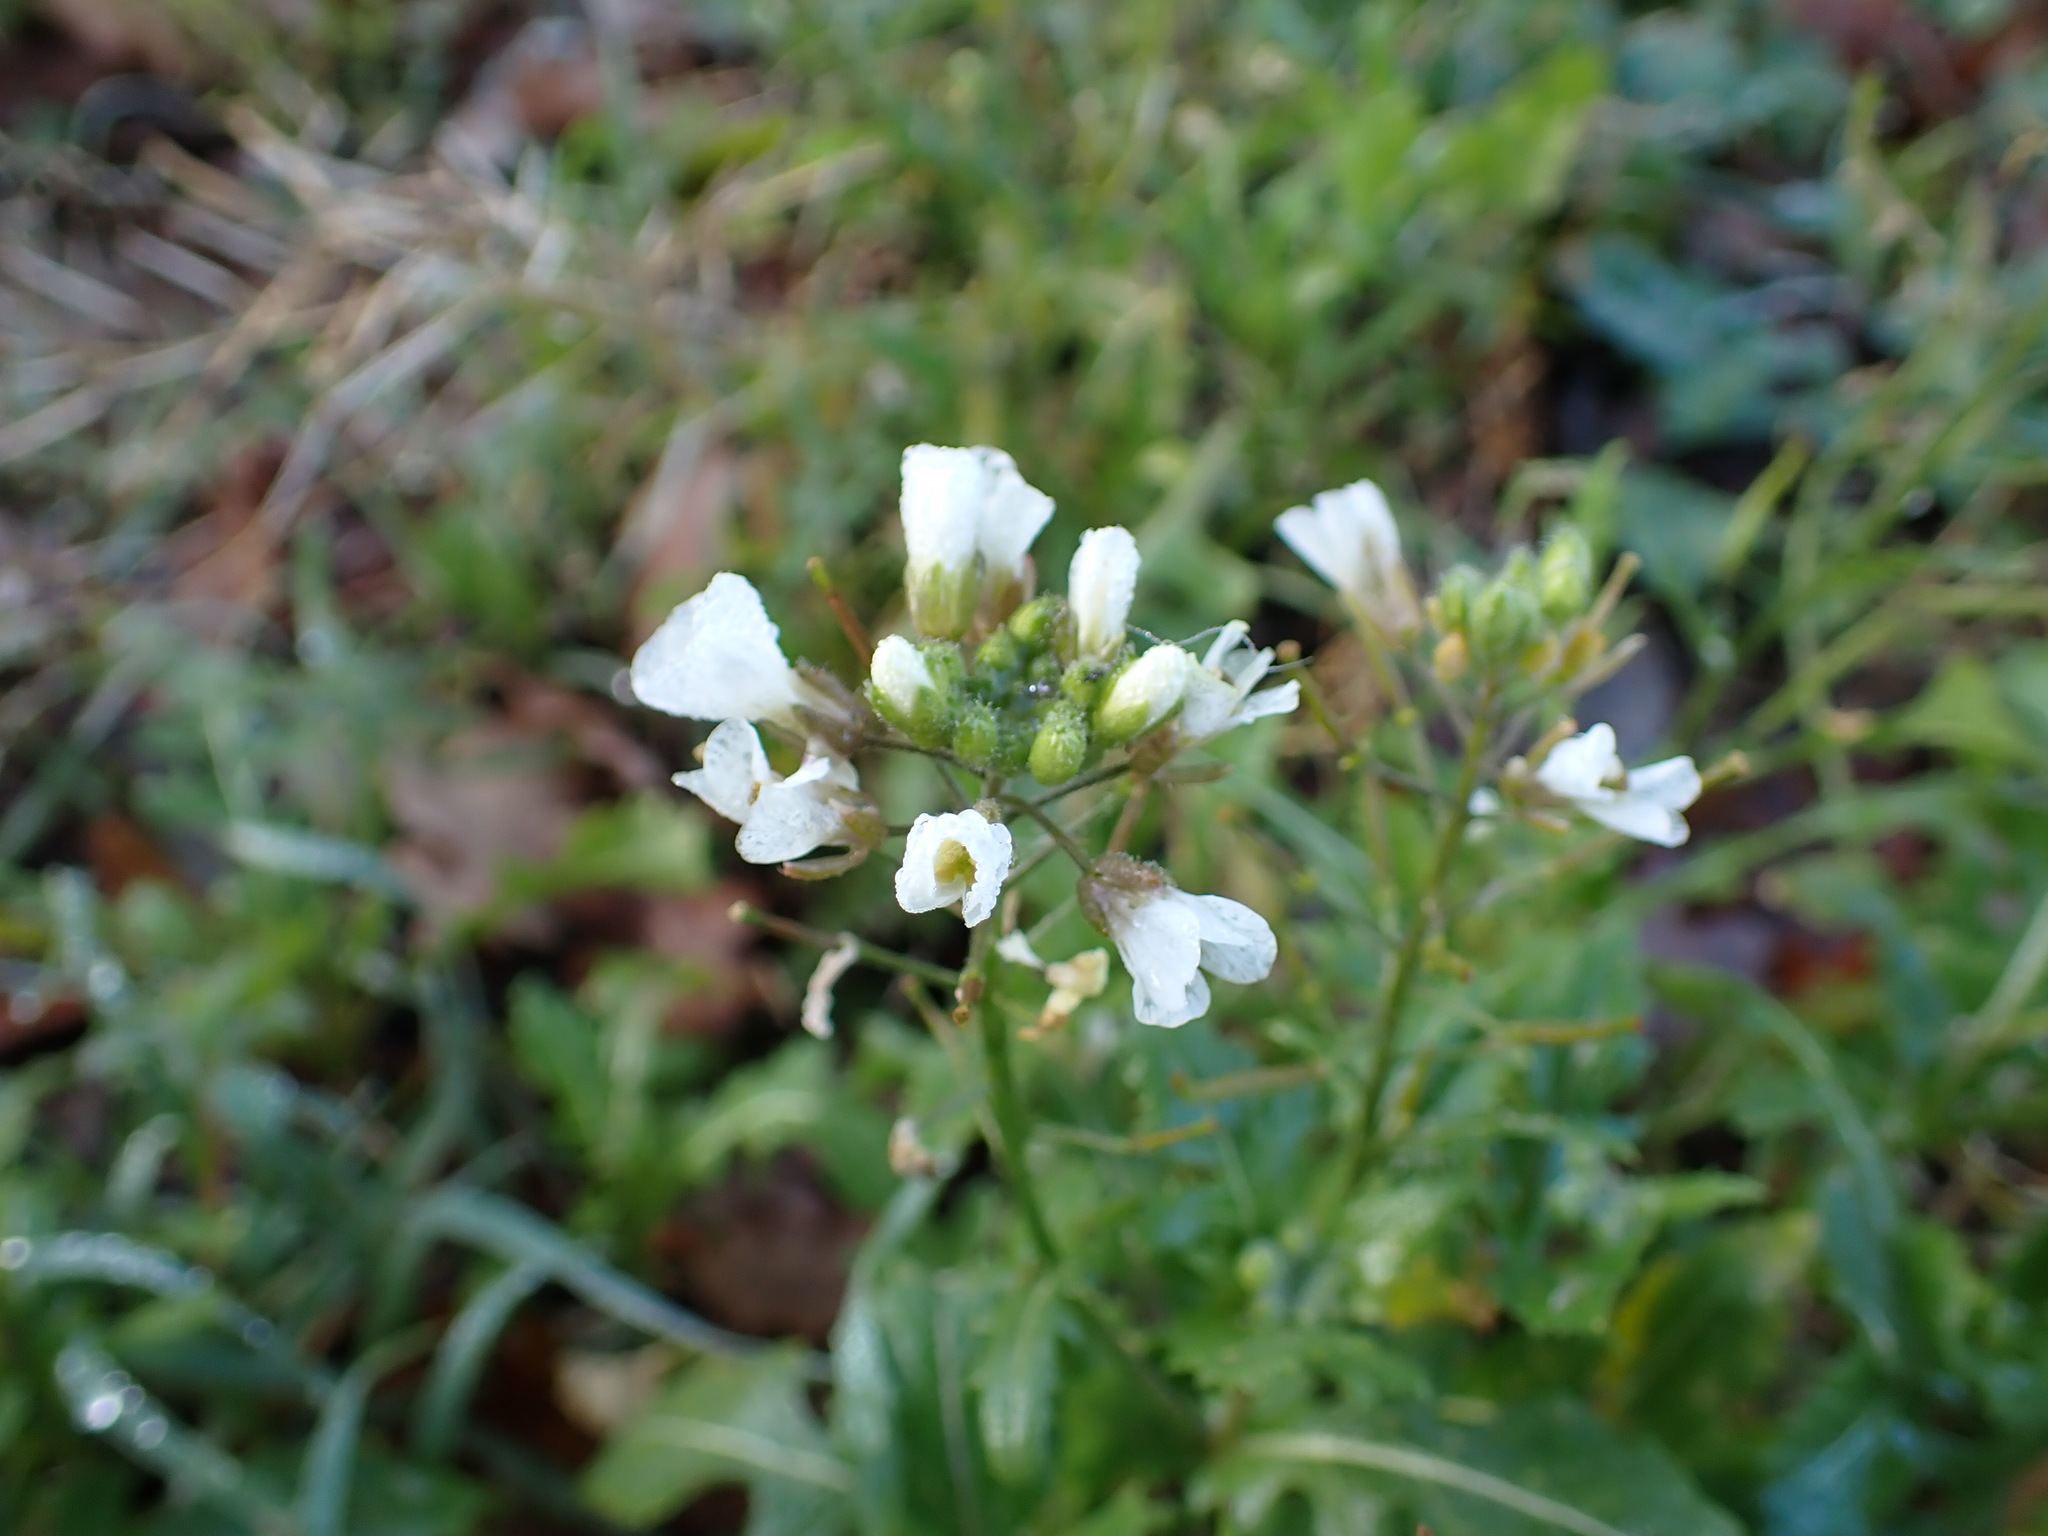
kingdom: Plantae
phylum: Tracheophyta
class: Magnoliopsida
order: Brassicales
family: Brassicaceae
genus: Diplotaxis
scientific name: Diplotaxis erucoides
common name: White rocket
